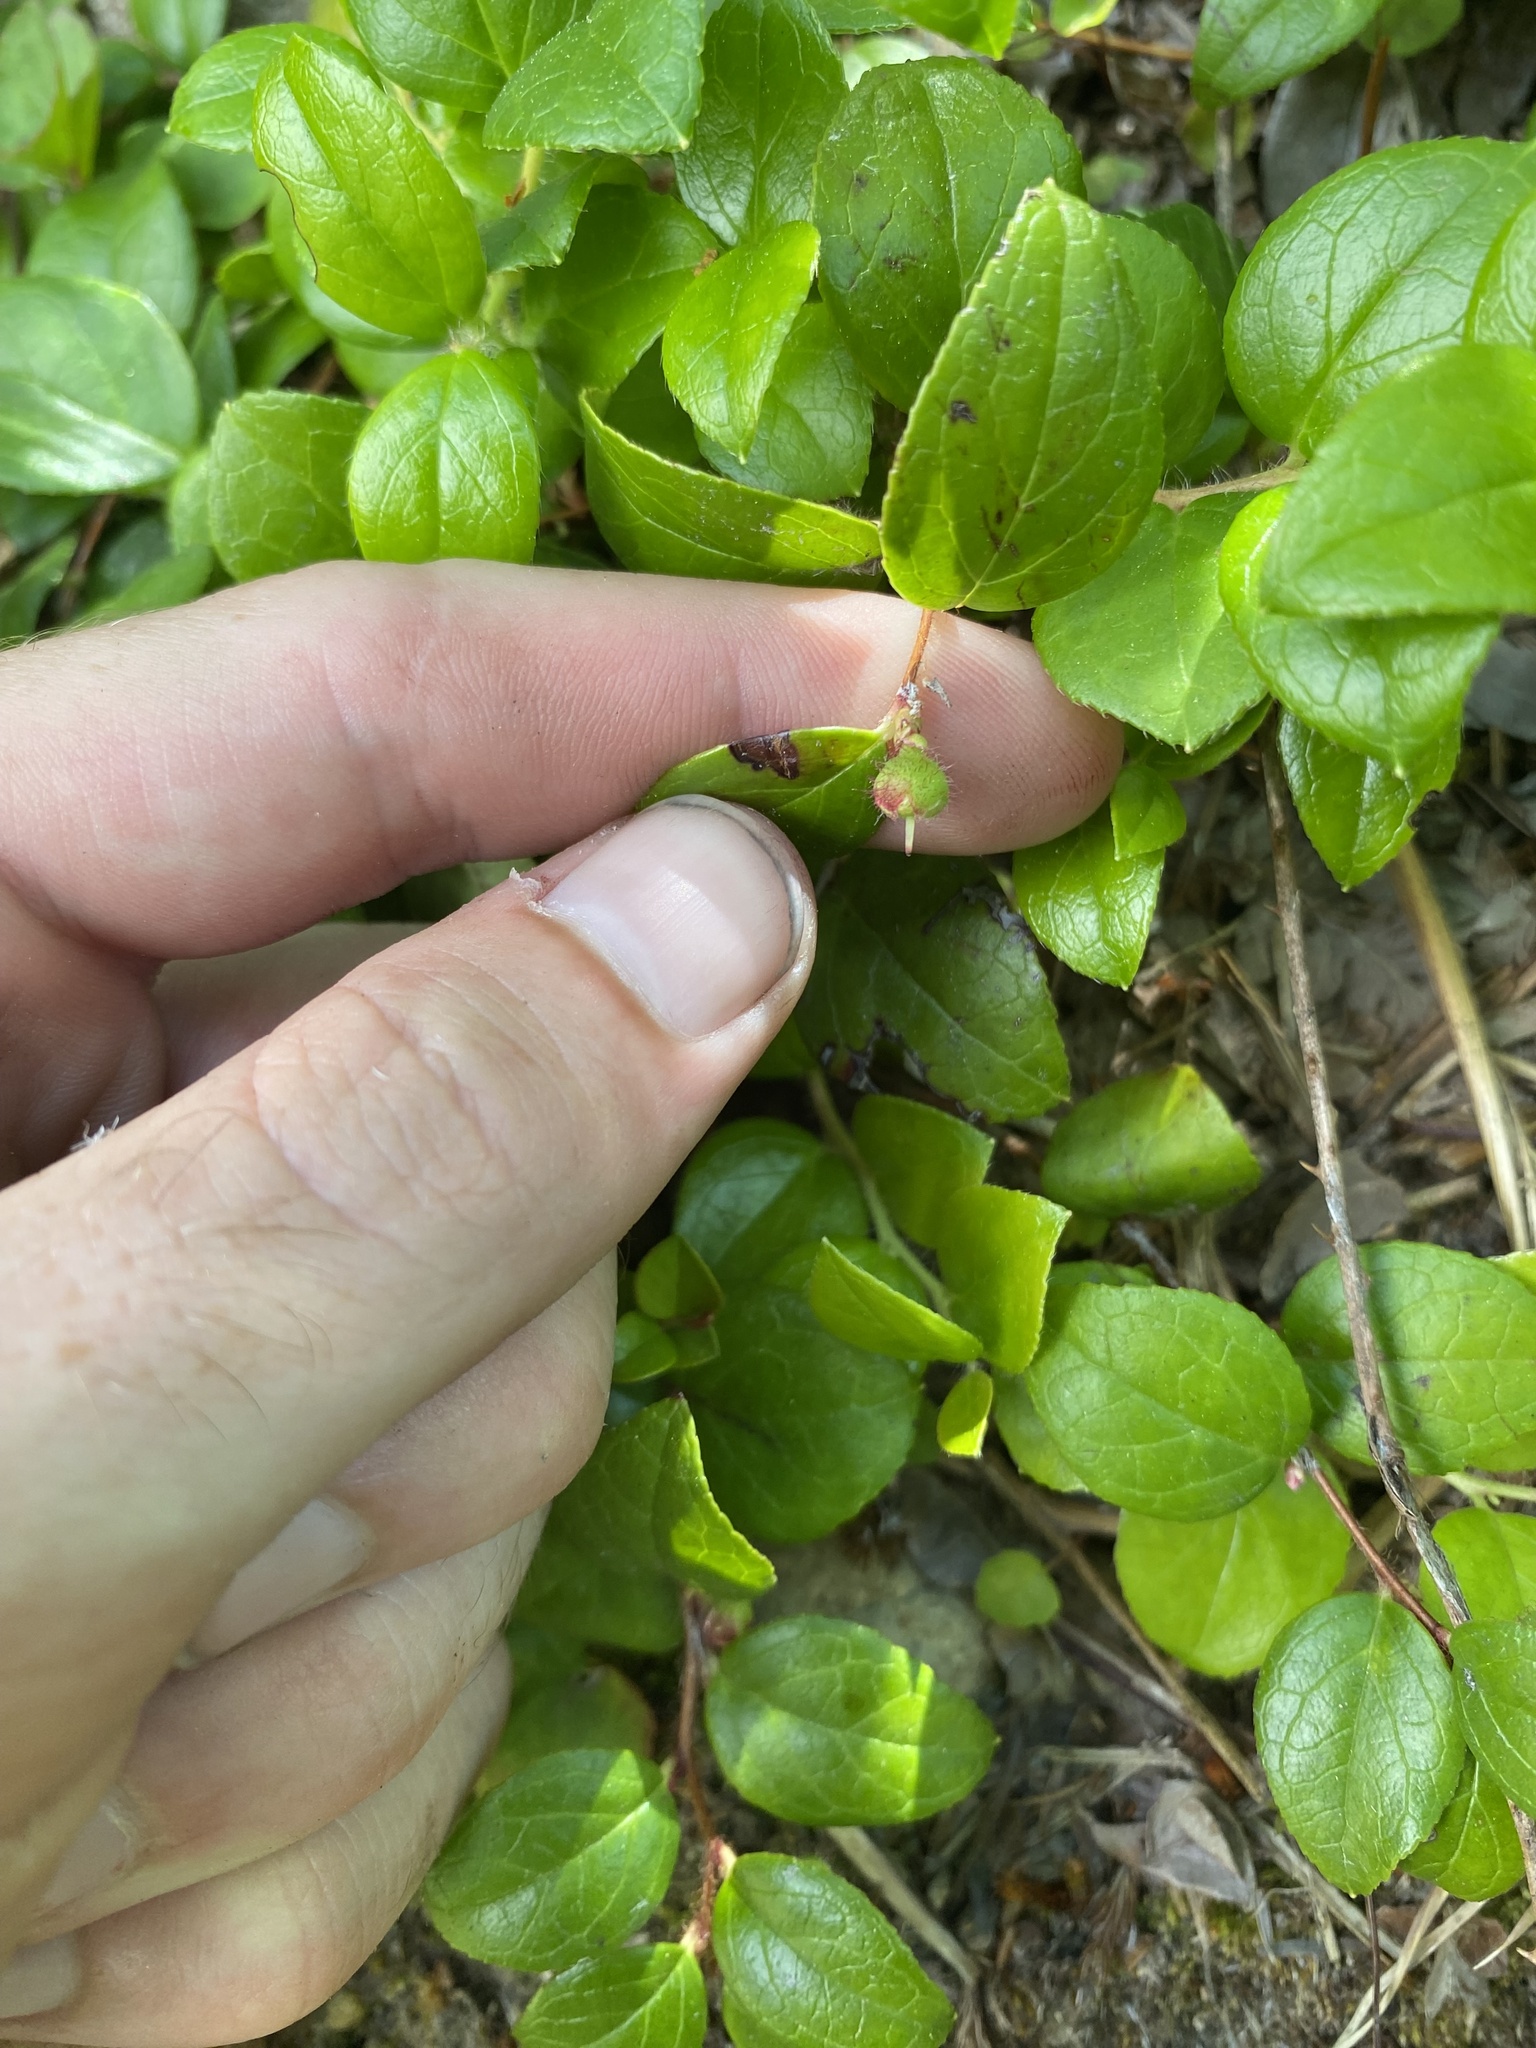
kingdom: Plantae
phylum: Tracheophyta
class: Magnoliopsida
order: Ericales
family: Ericaceae
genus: Gaultheria
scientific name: Gaultheria ovatifolia
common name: Oregon wintergreen
